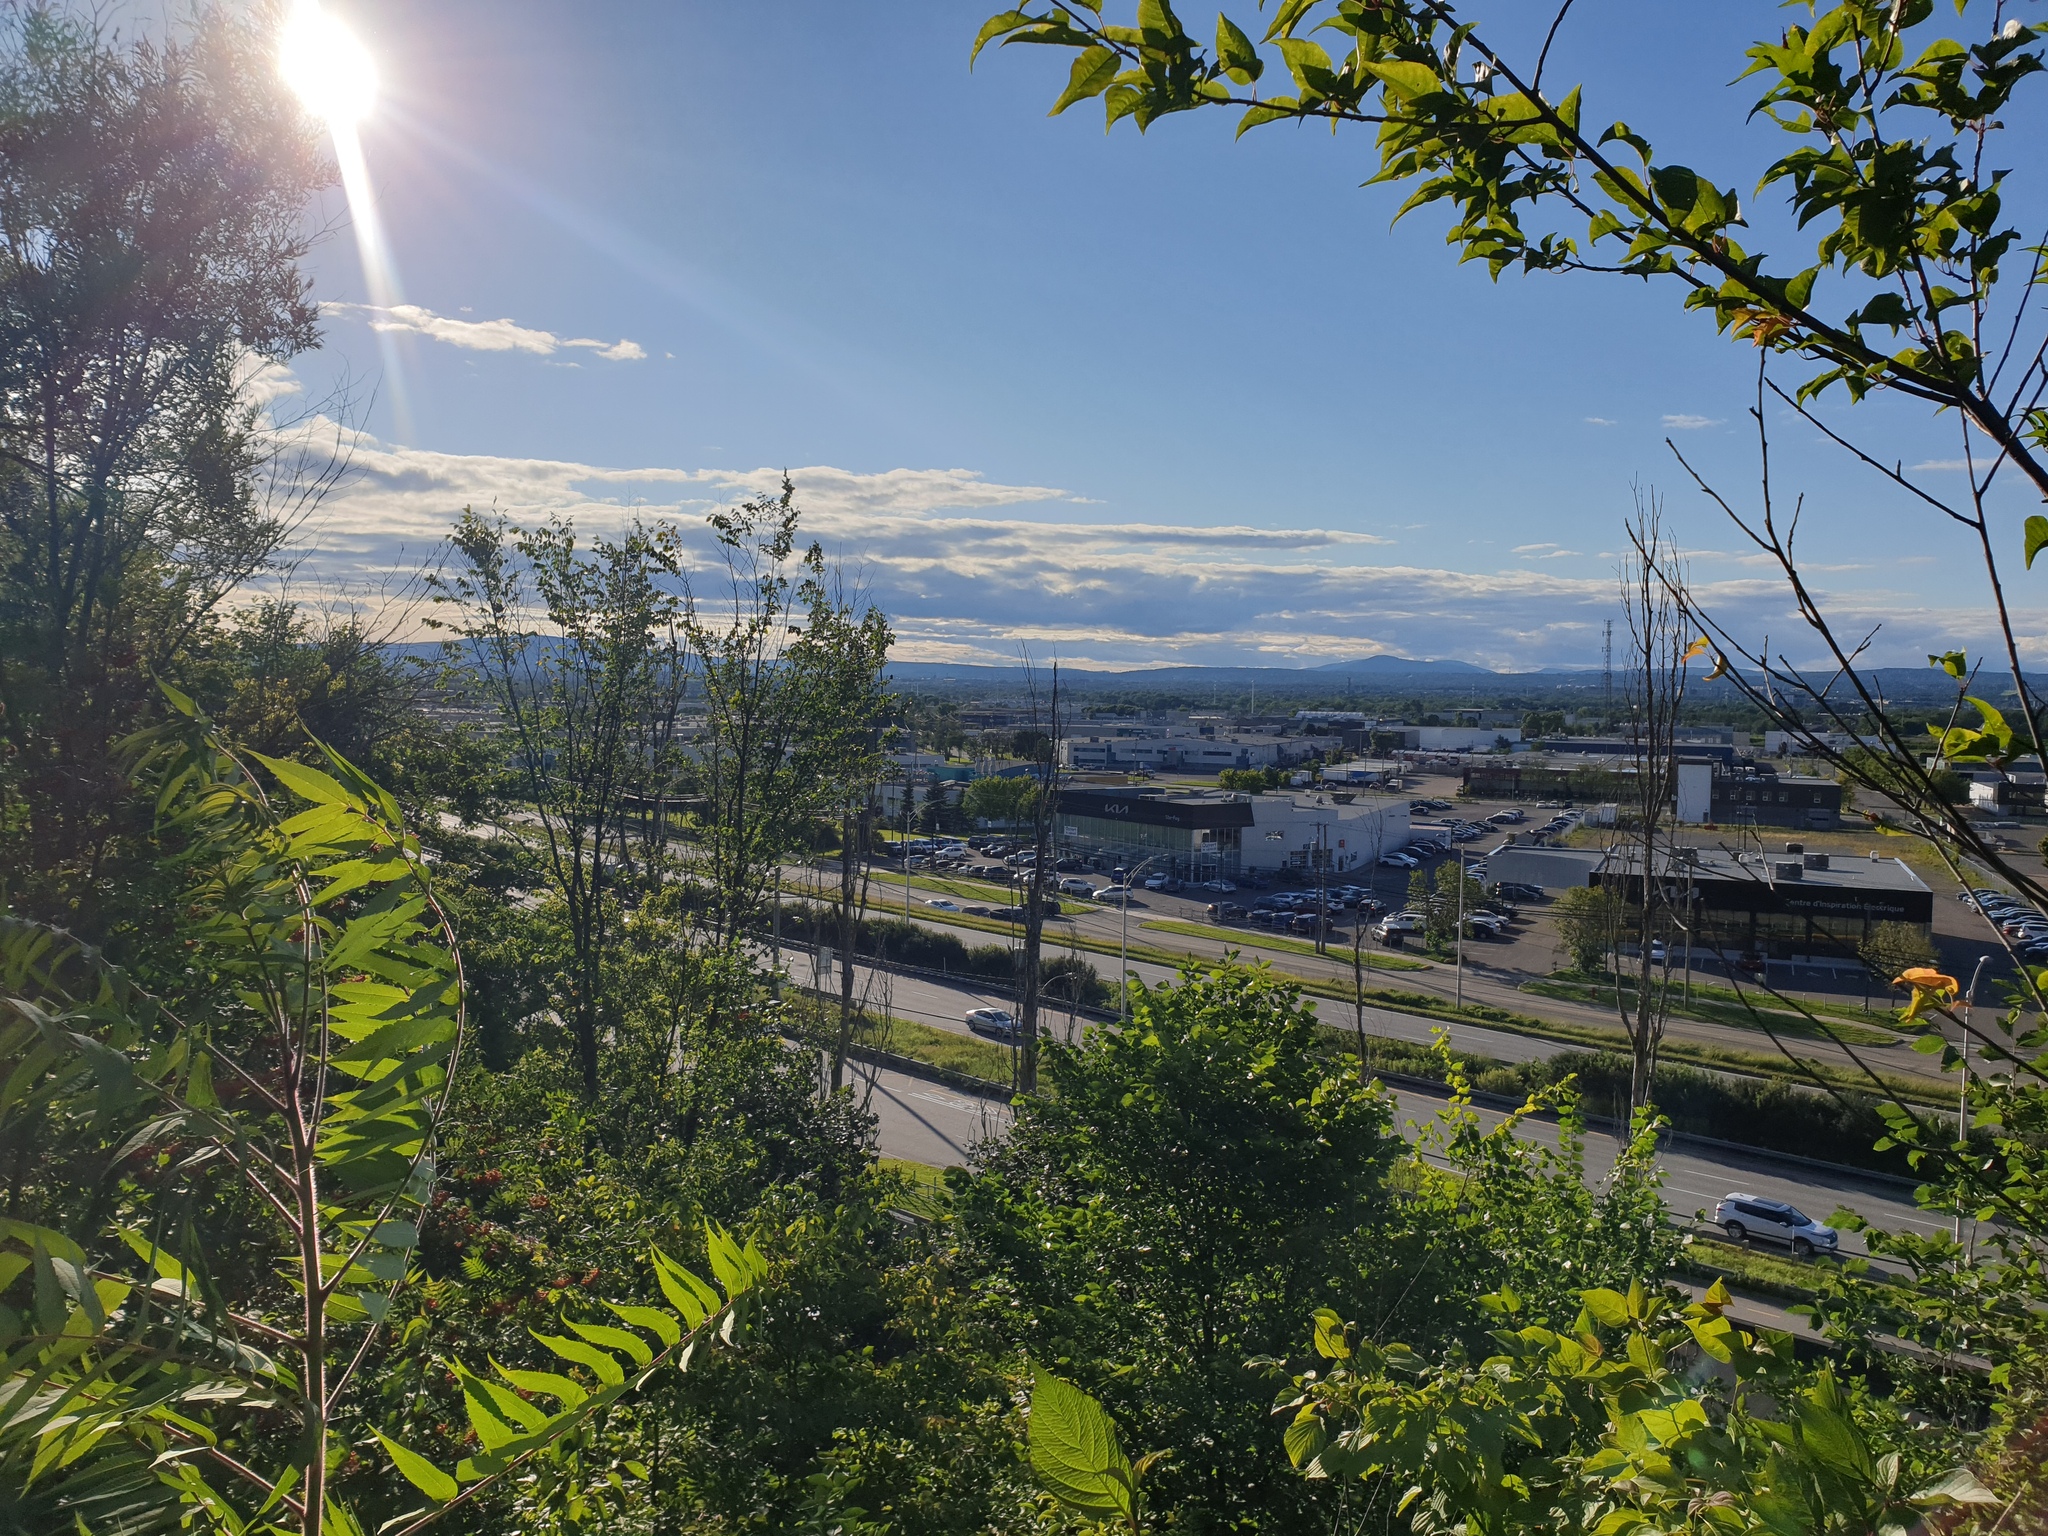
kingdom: Plantae
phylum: Tracheophyta
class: Magnoliopsida
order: Sapindales
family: Anacardiaceae
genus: Rhus
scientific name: Rhus typhina
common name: Staghorn sumac
